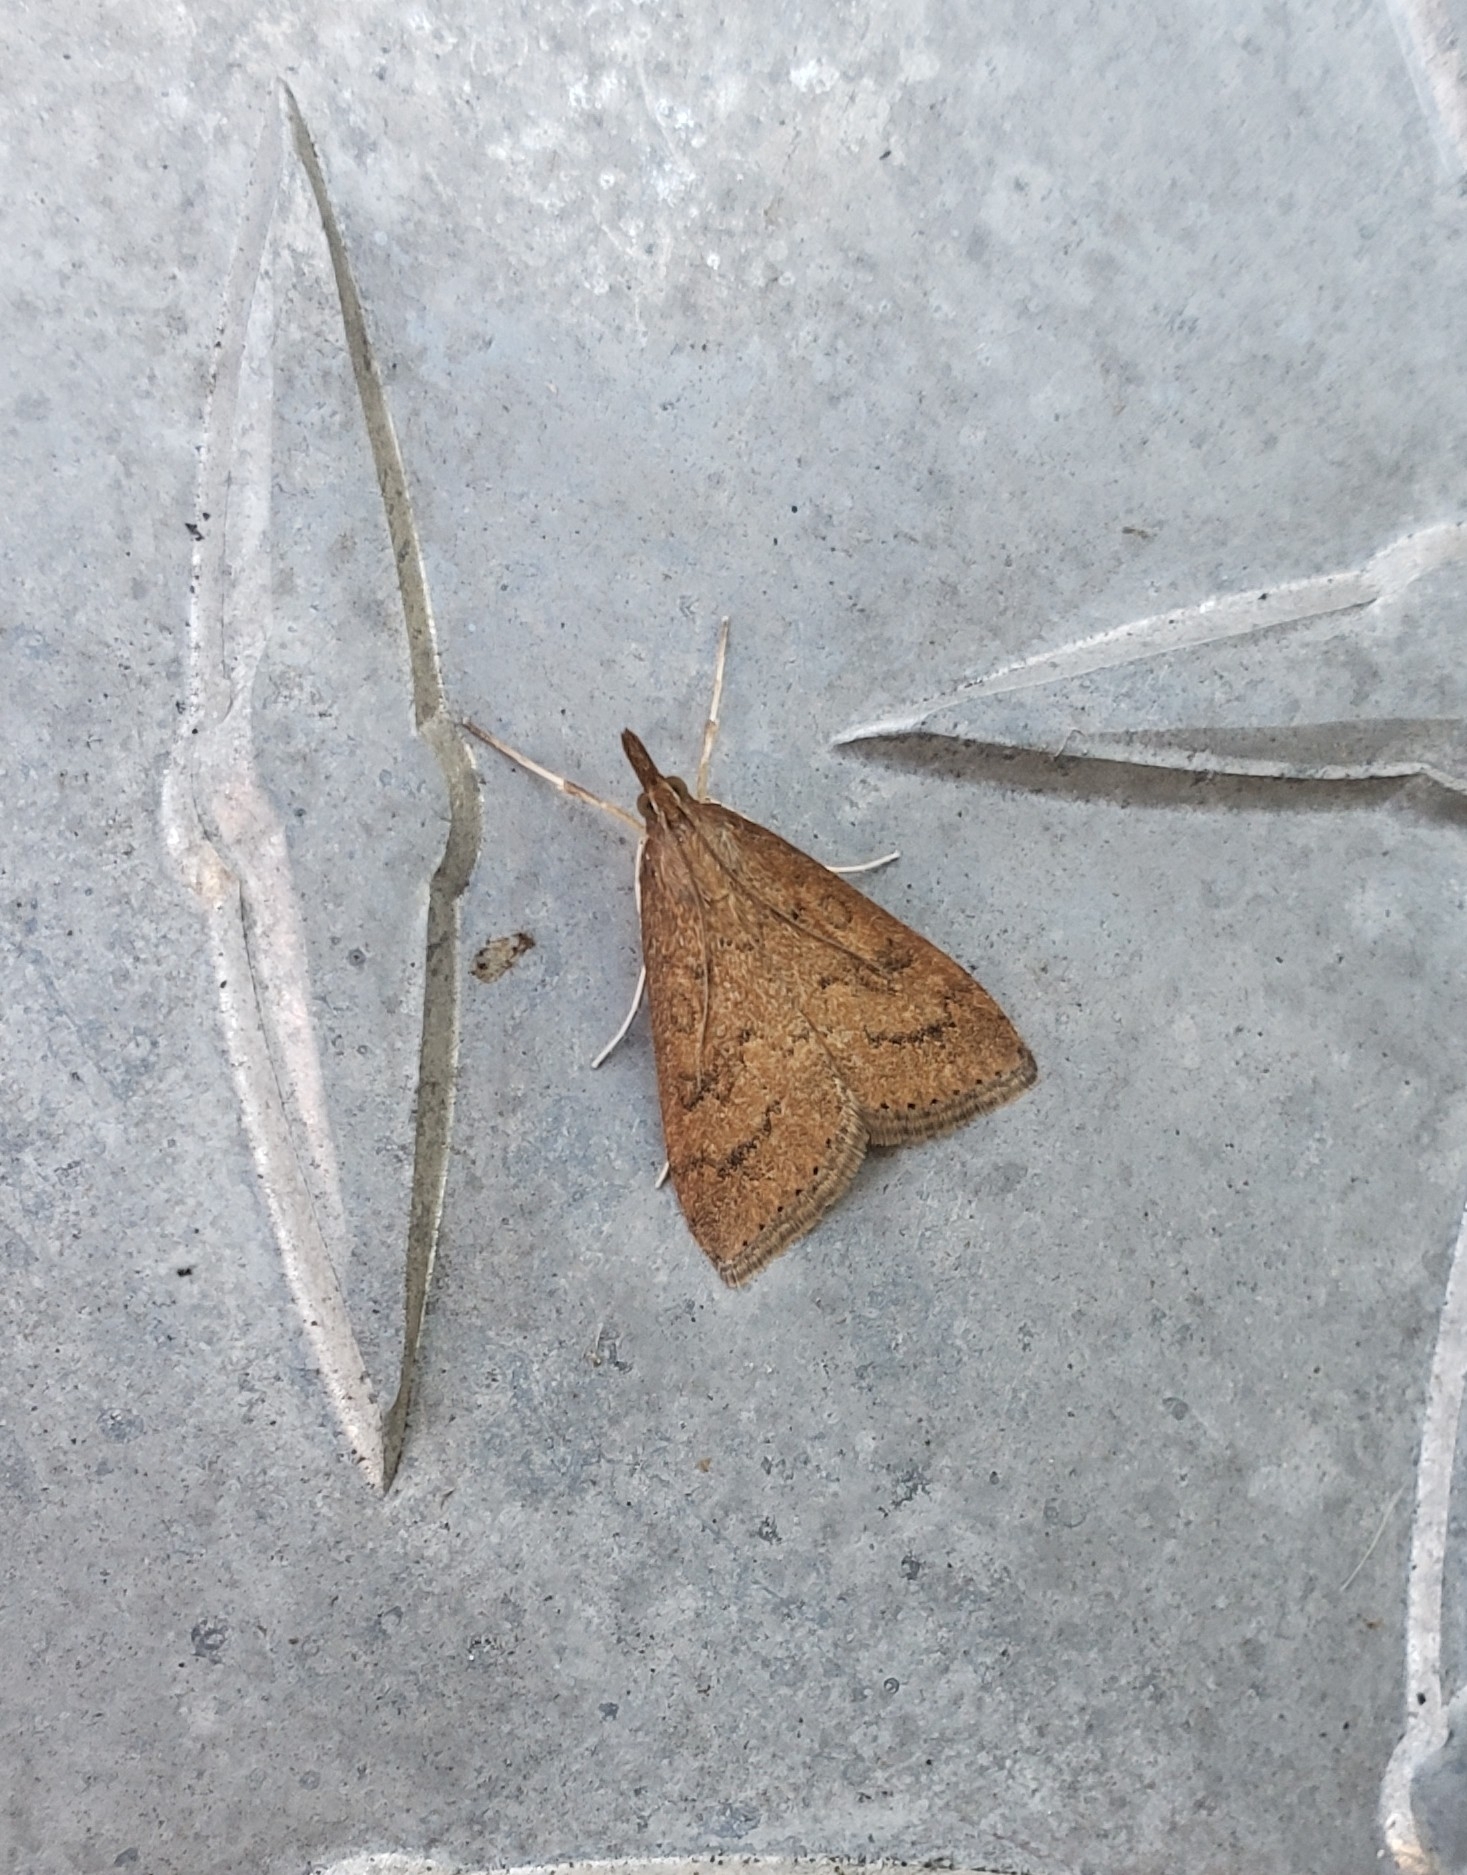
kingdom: Animalia
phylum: Arthropoda
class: Insecta
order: Lepidoptera
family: Crambidae
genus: Udea
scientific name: Udea rubigalis
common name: Celery leaftier moth
